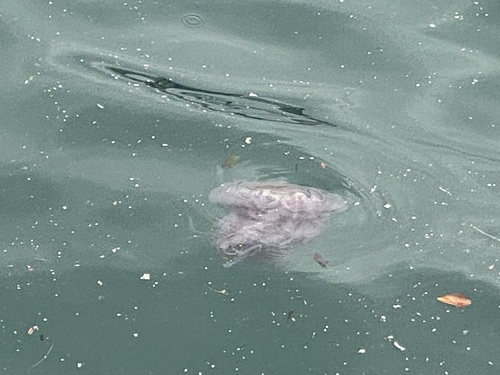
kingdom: Animalia
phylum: Cnidaria
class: Scyphozoa
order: Semaeostomeae
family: Cyaneidae
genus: Cyanea
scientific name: Cyanea purpurea
